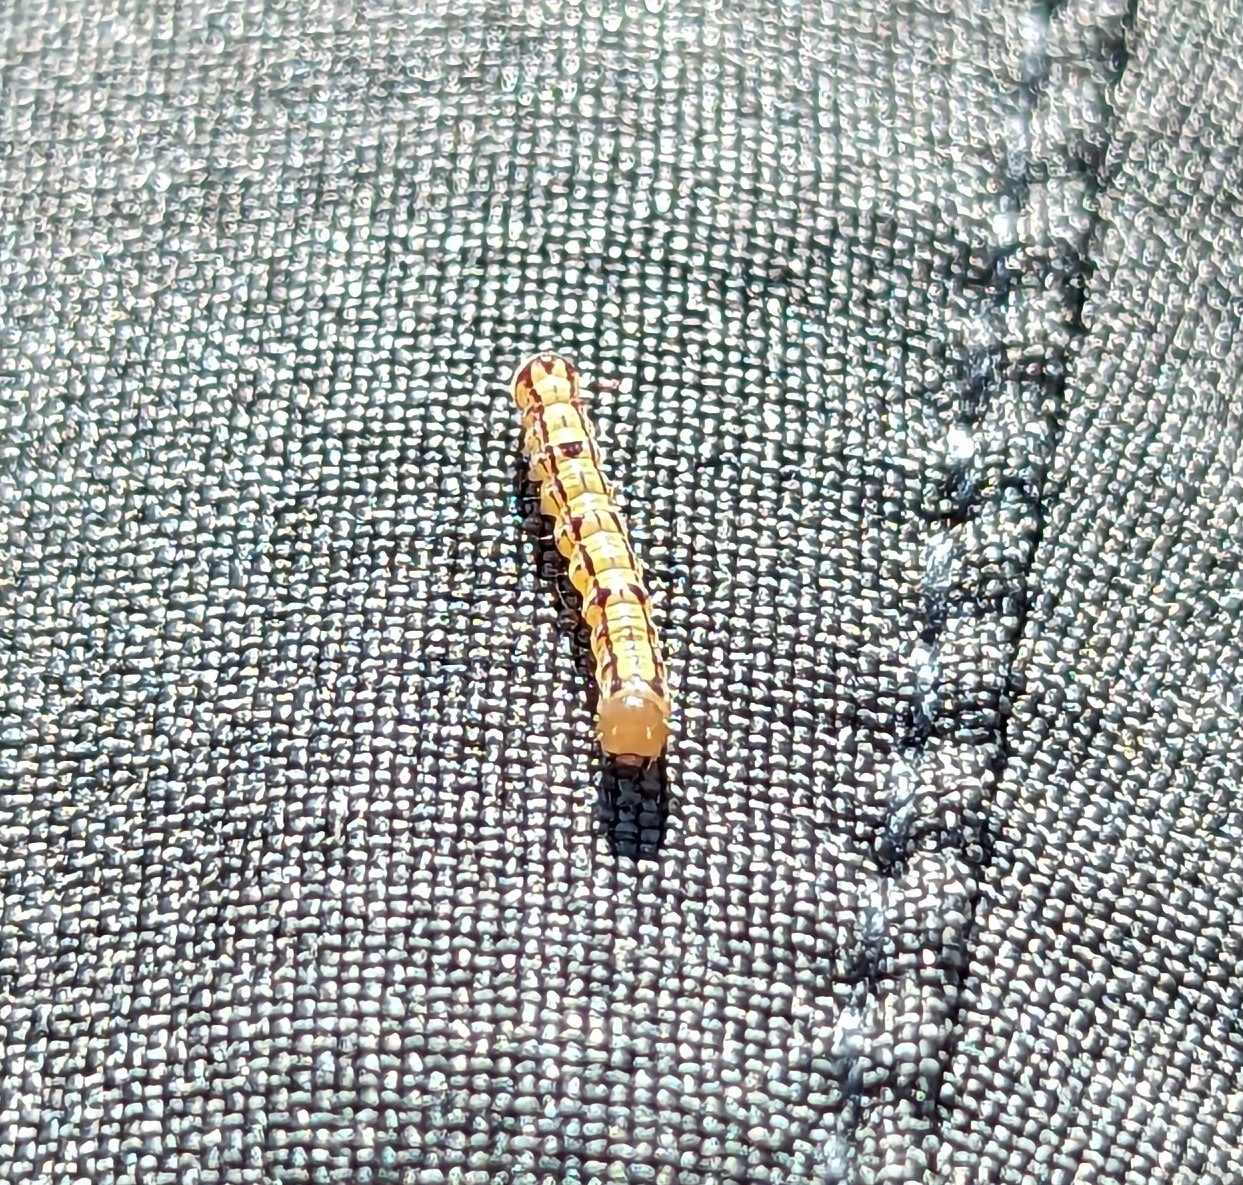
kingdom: Animalia
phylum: Arthropoda
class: Insecta
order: Lepidoptera
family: Notodontidae
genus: Phryganidia
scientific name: Phryganidia californica
